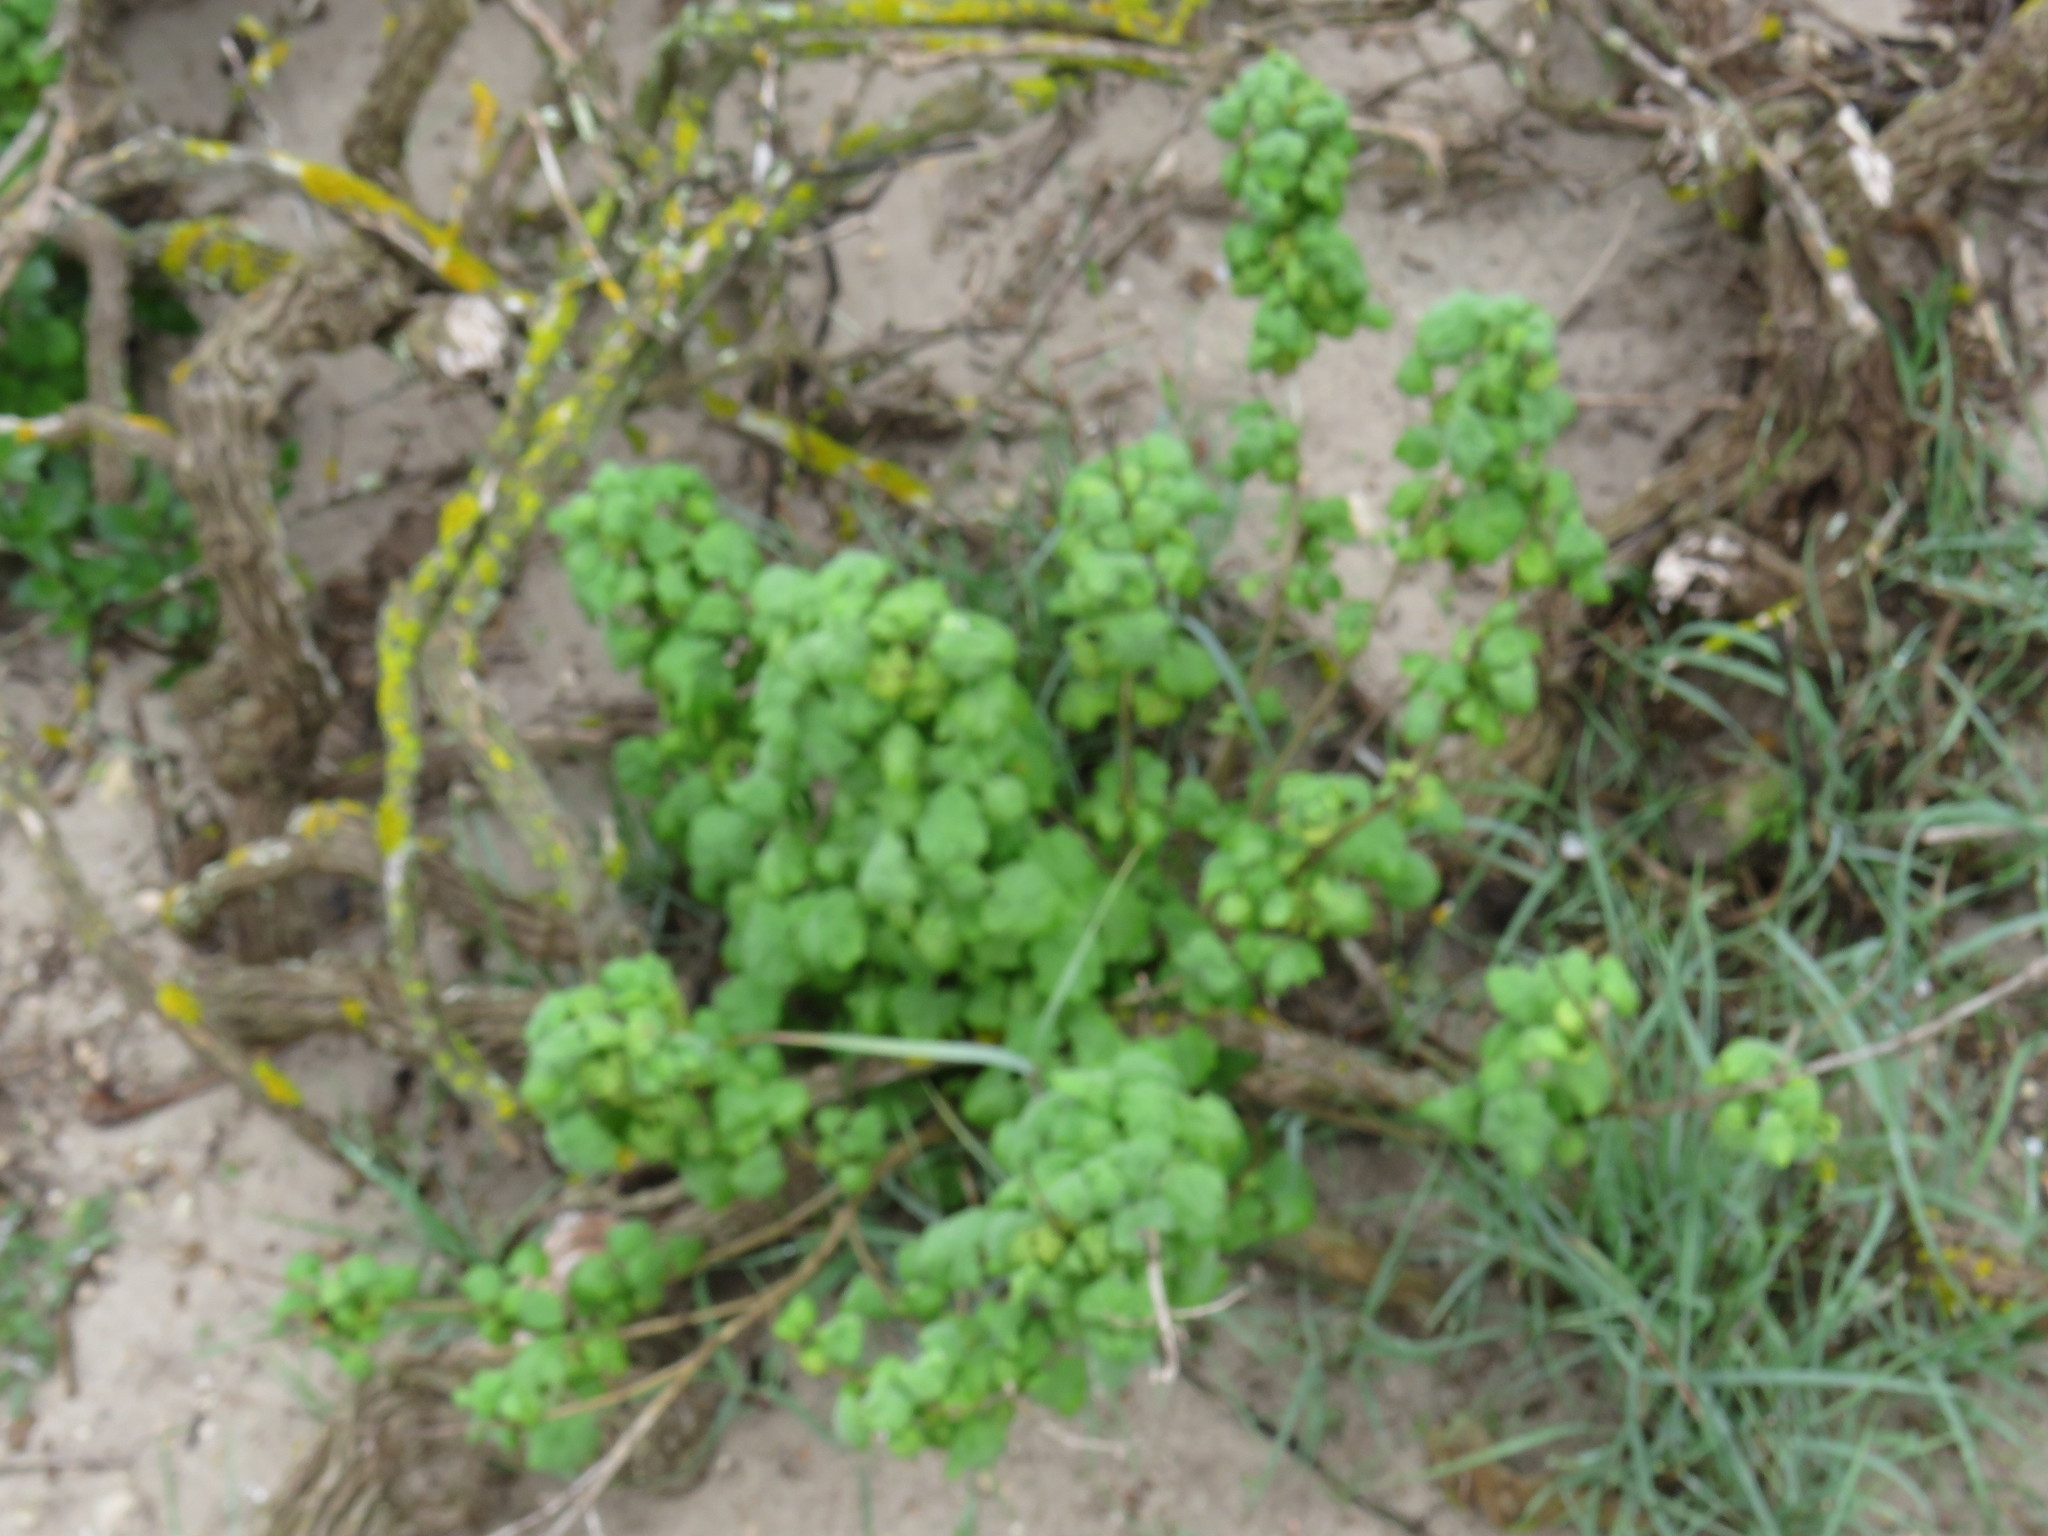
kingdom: Plantae
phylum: Tracheophyta
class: Magnoliopsida
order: Lamiales
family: Lamiaceae
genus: Pseudodictamnus
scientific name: Pseudodictamnus africanus
